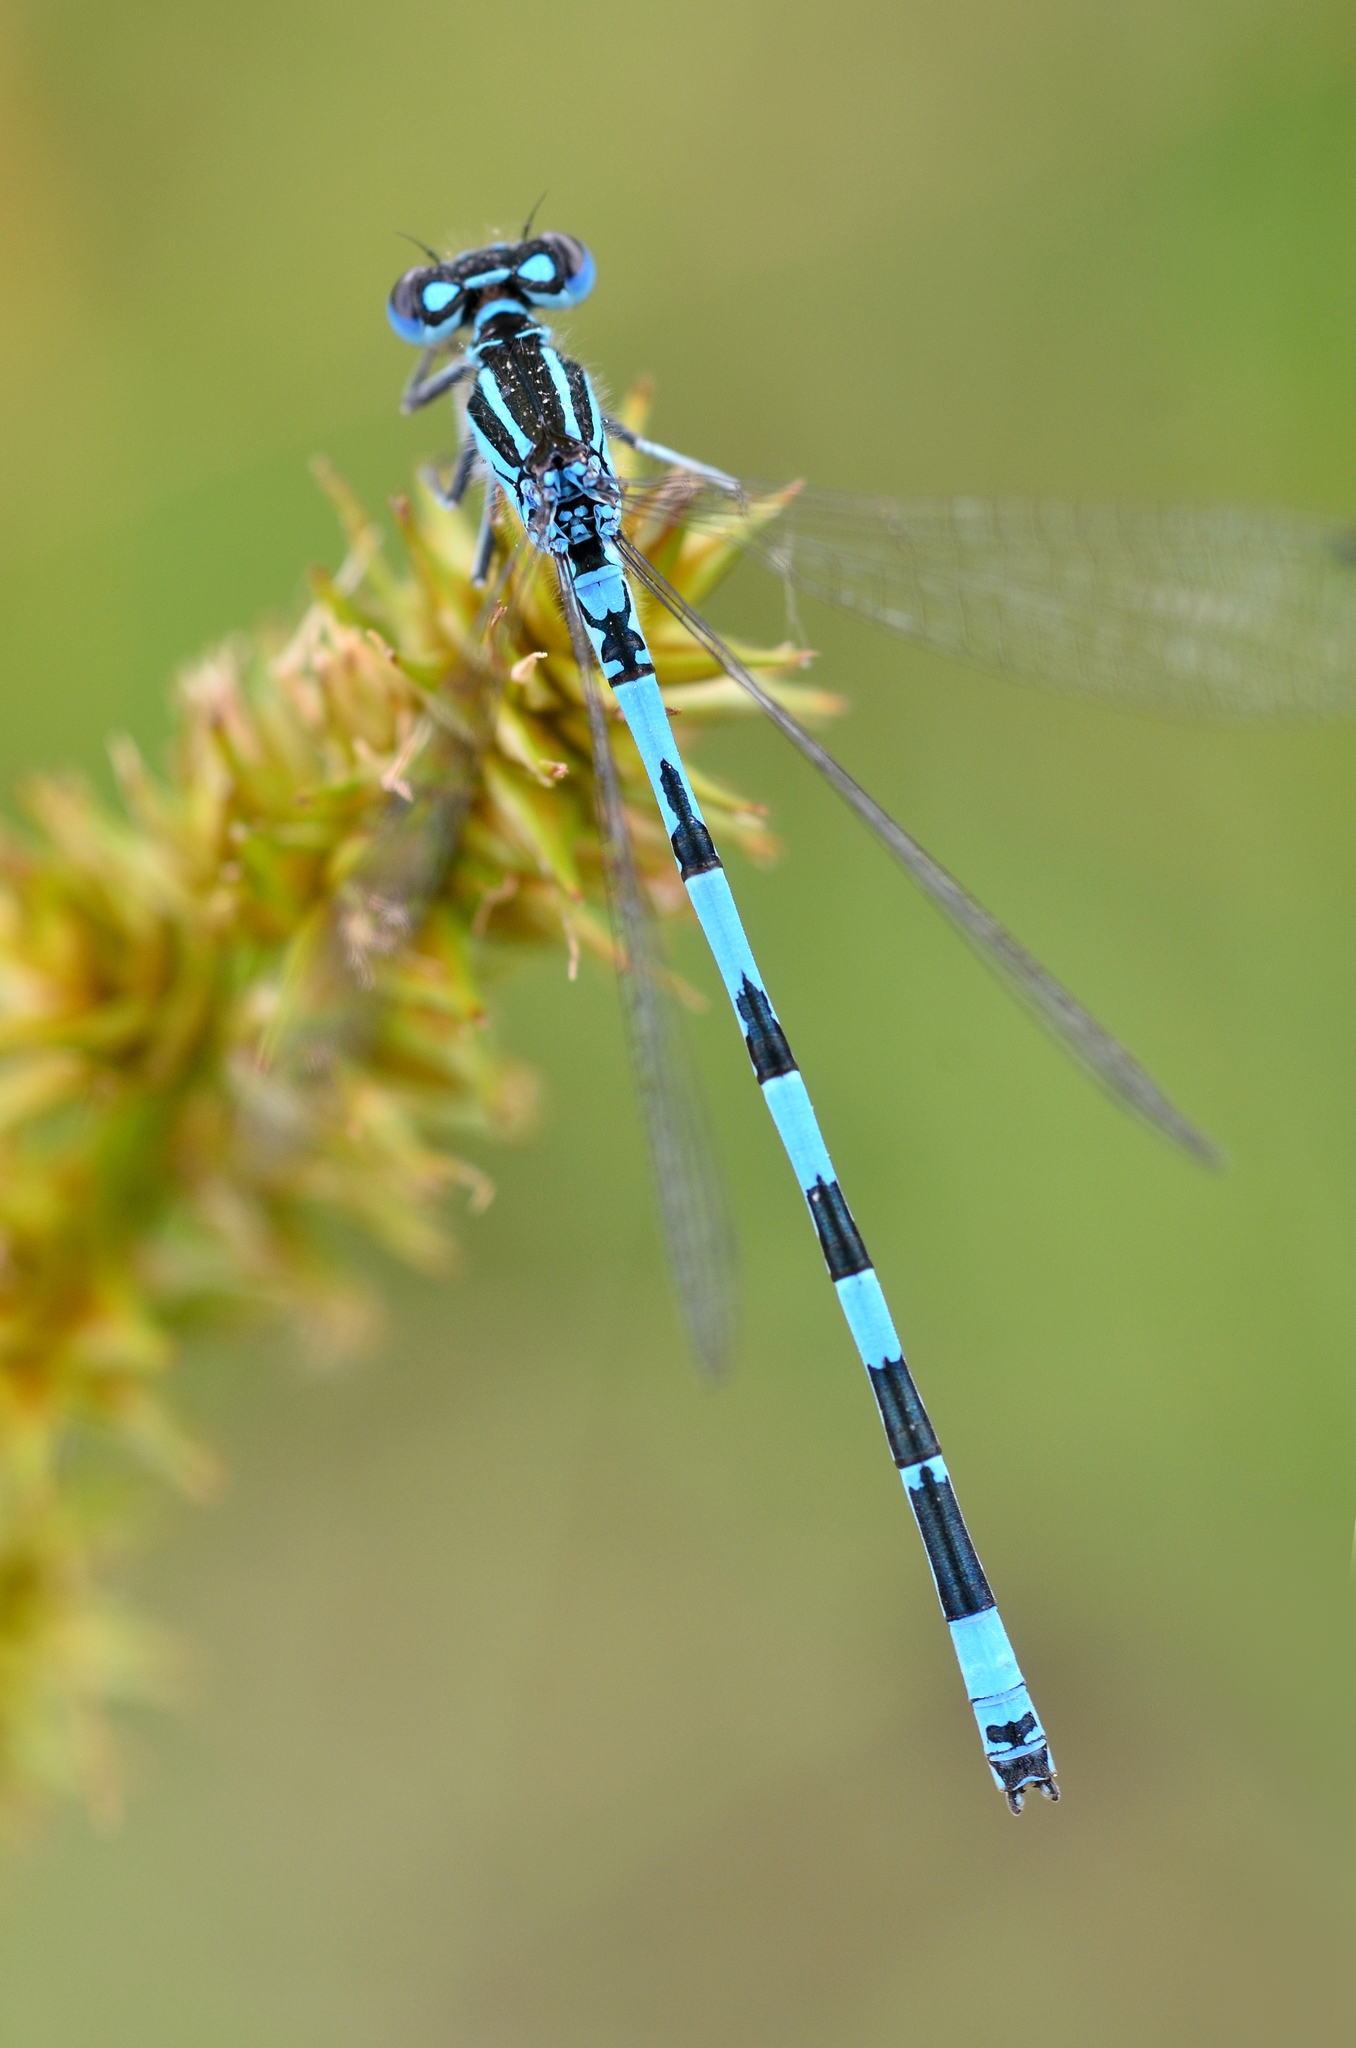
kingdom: Animalia
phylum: Arthropoda
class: Insecta
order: Odonata
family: Coenagrionidae
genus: Coenagrion
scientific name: Coenagrion mercuriale
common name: Southern damselfly
